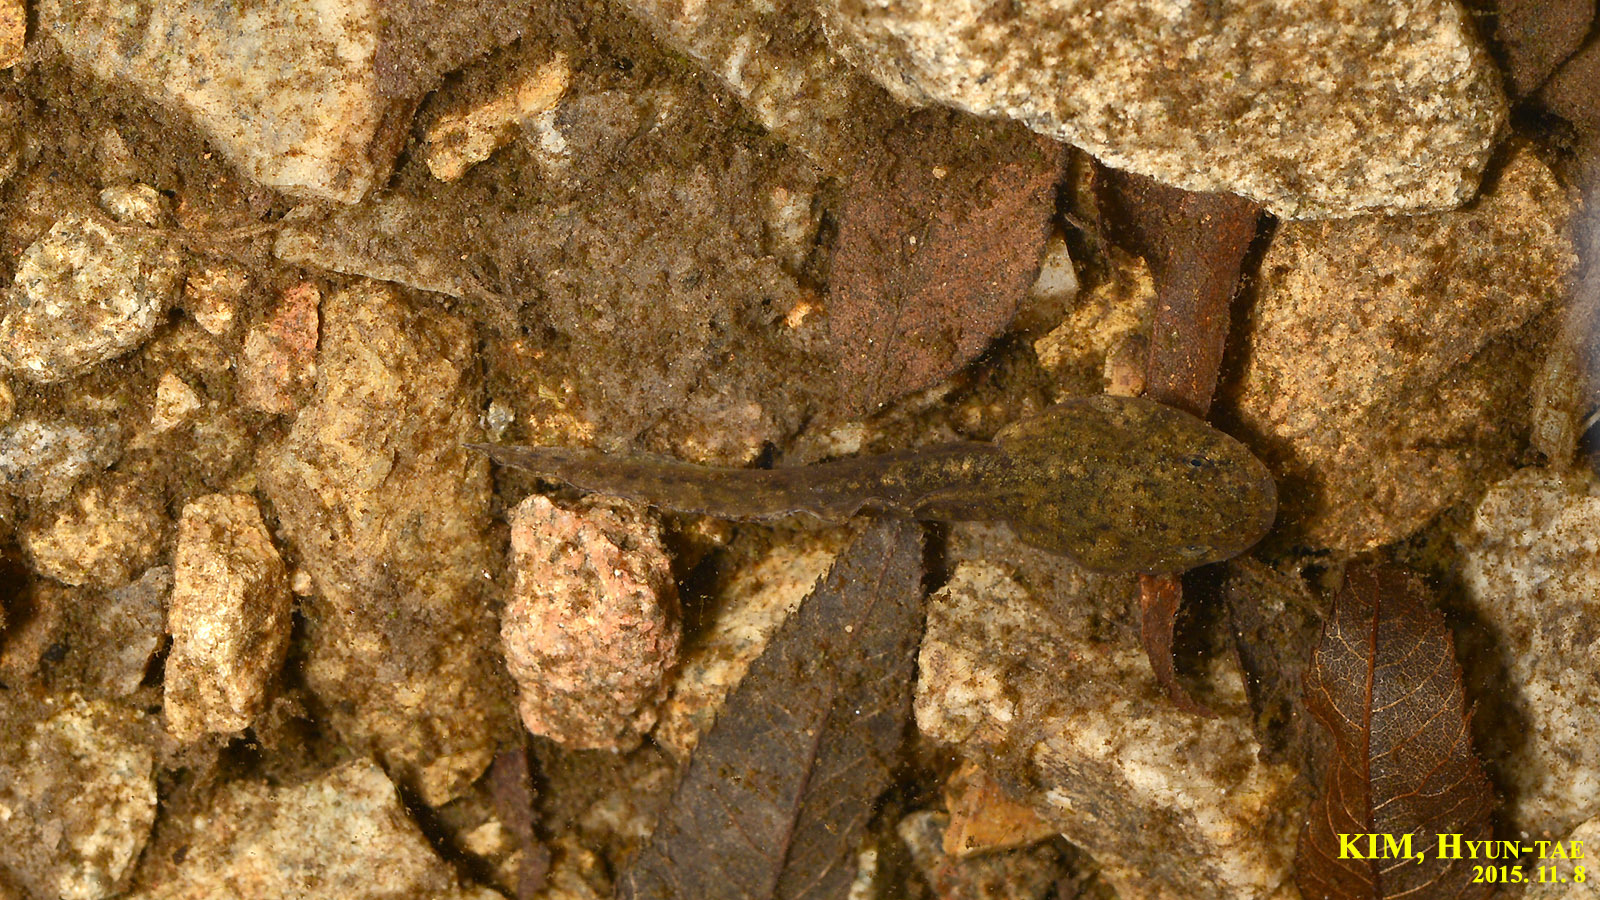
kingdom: Animalia
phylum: Chordata
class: Amphibia
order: Anura
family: Ranidae
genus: Glandirana
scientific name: Glandirana emeljanovi
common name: Northeast china rough-skinned frog
